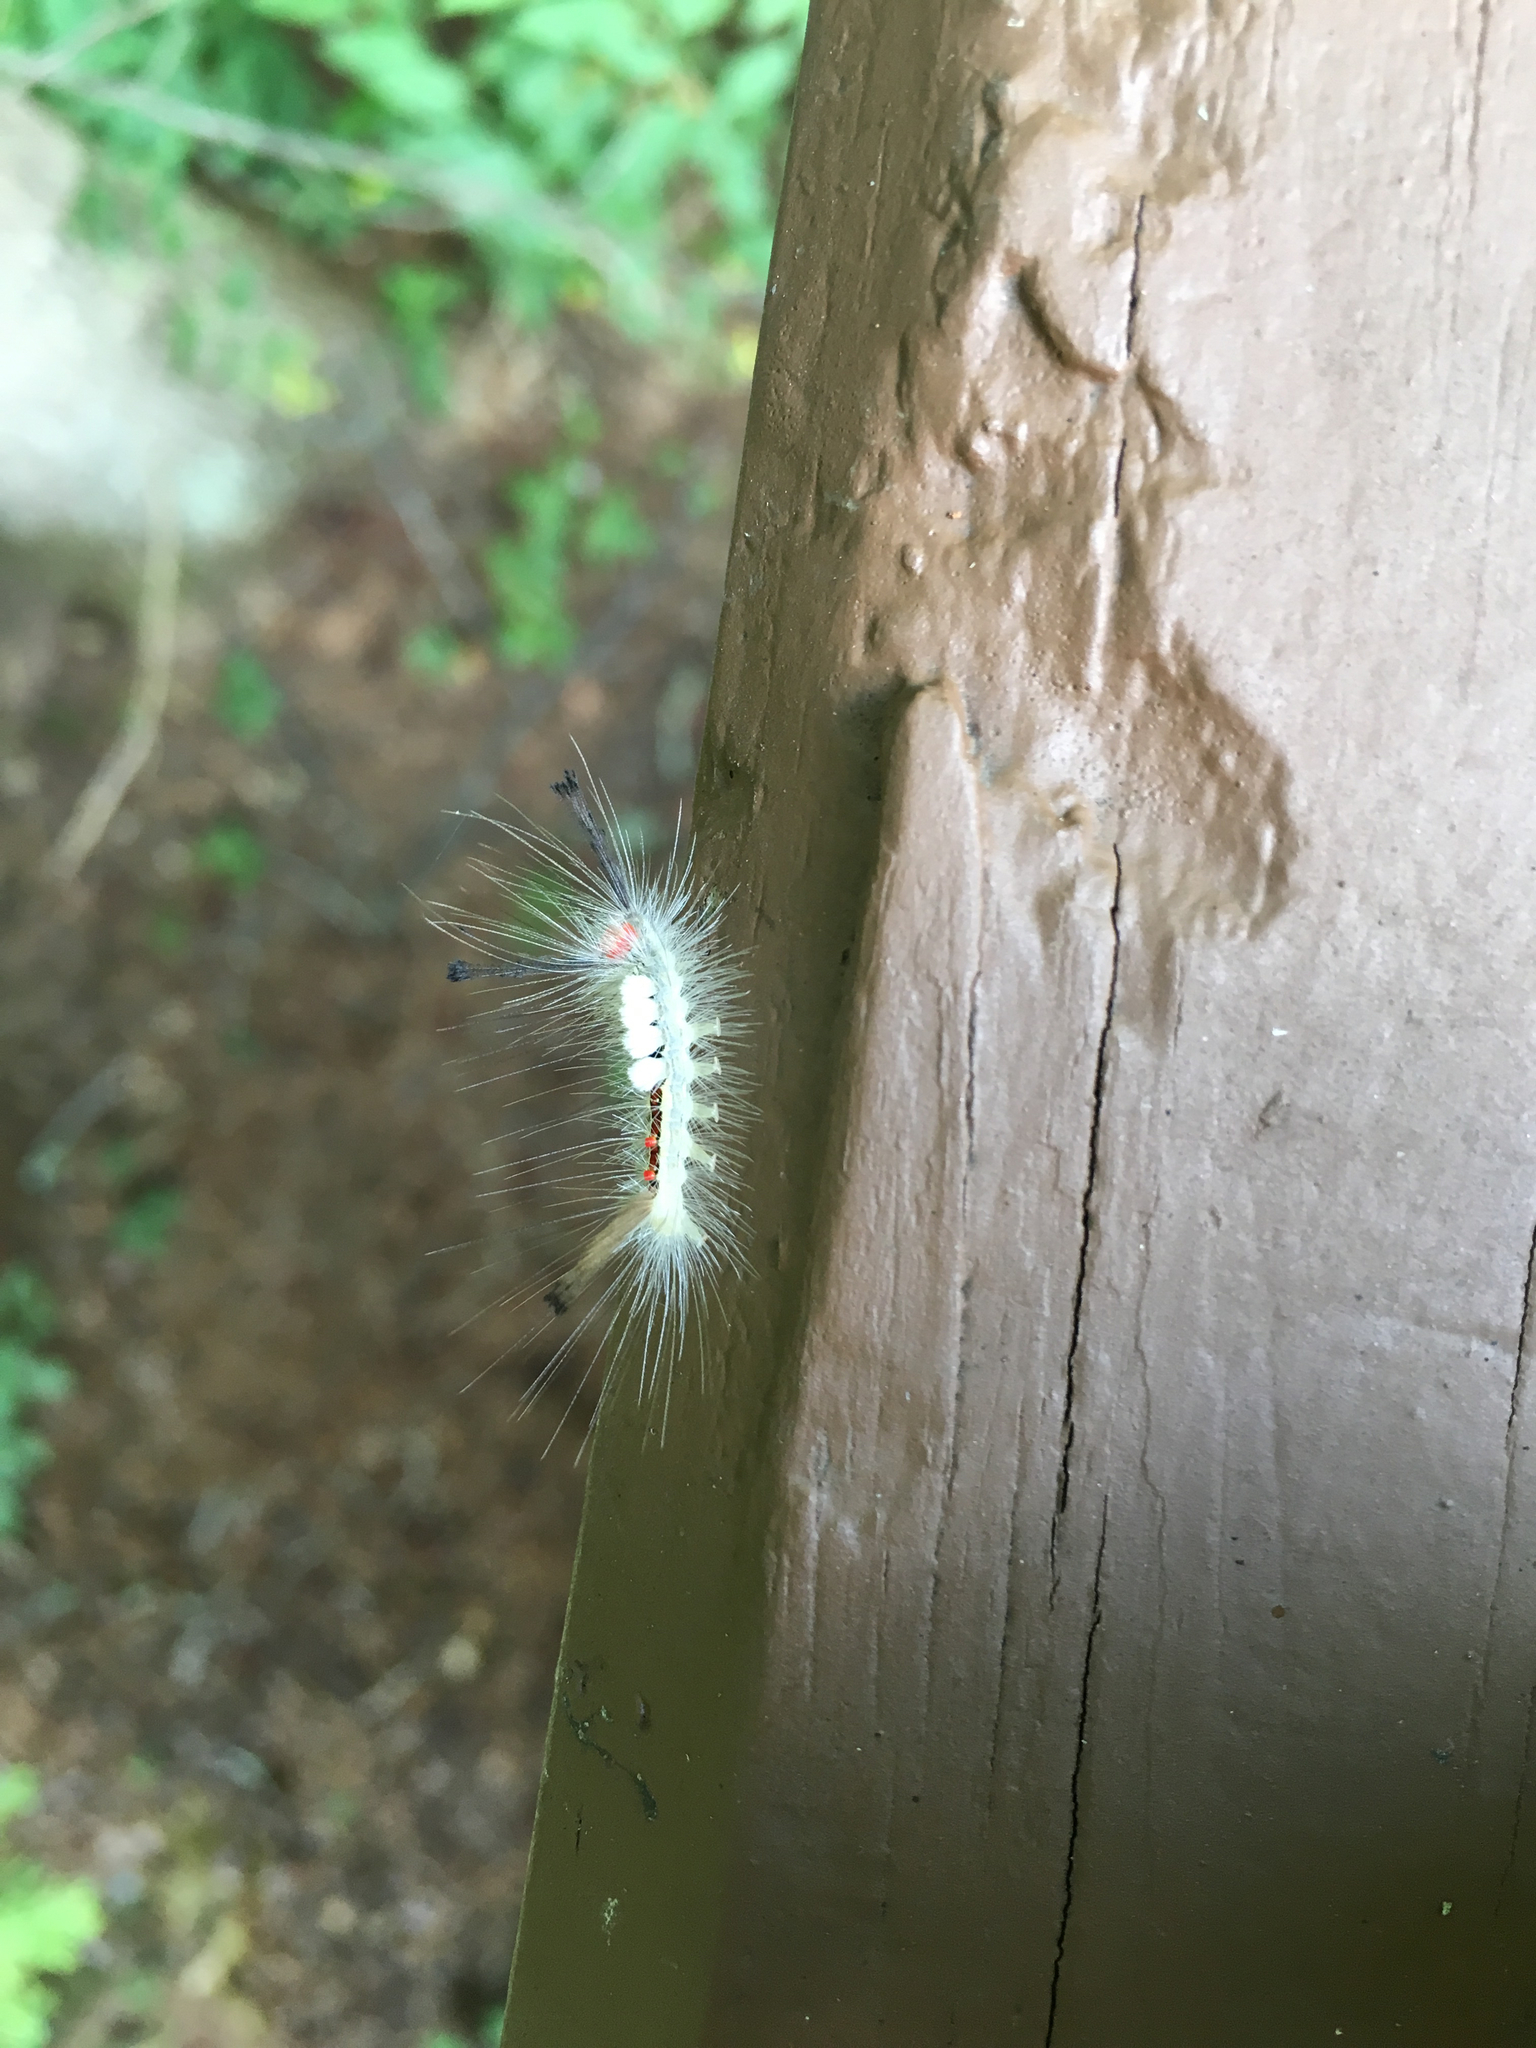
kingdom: Animalia
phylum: Arthropoda
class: Insecta
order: Lepidoptera
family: Erebidae
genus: Orgyia
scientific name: Orgyia leucostigma
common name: White-marked tussock moth
